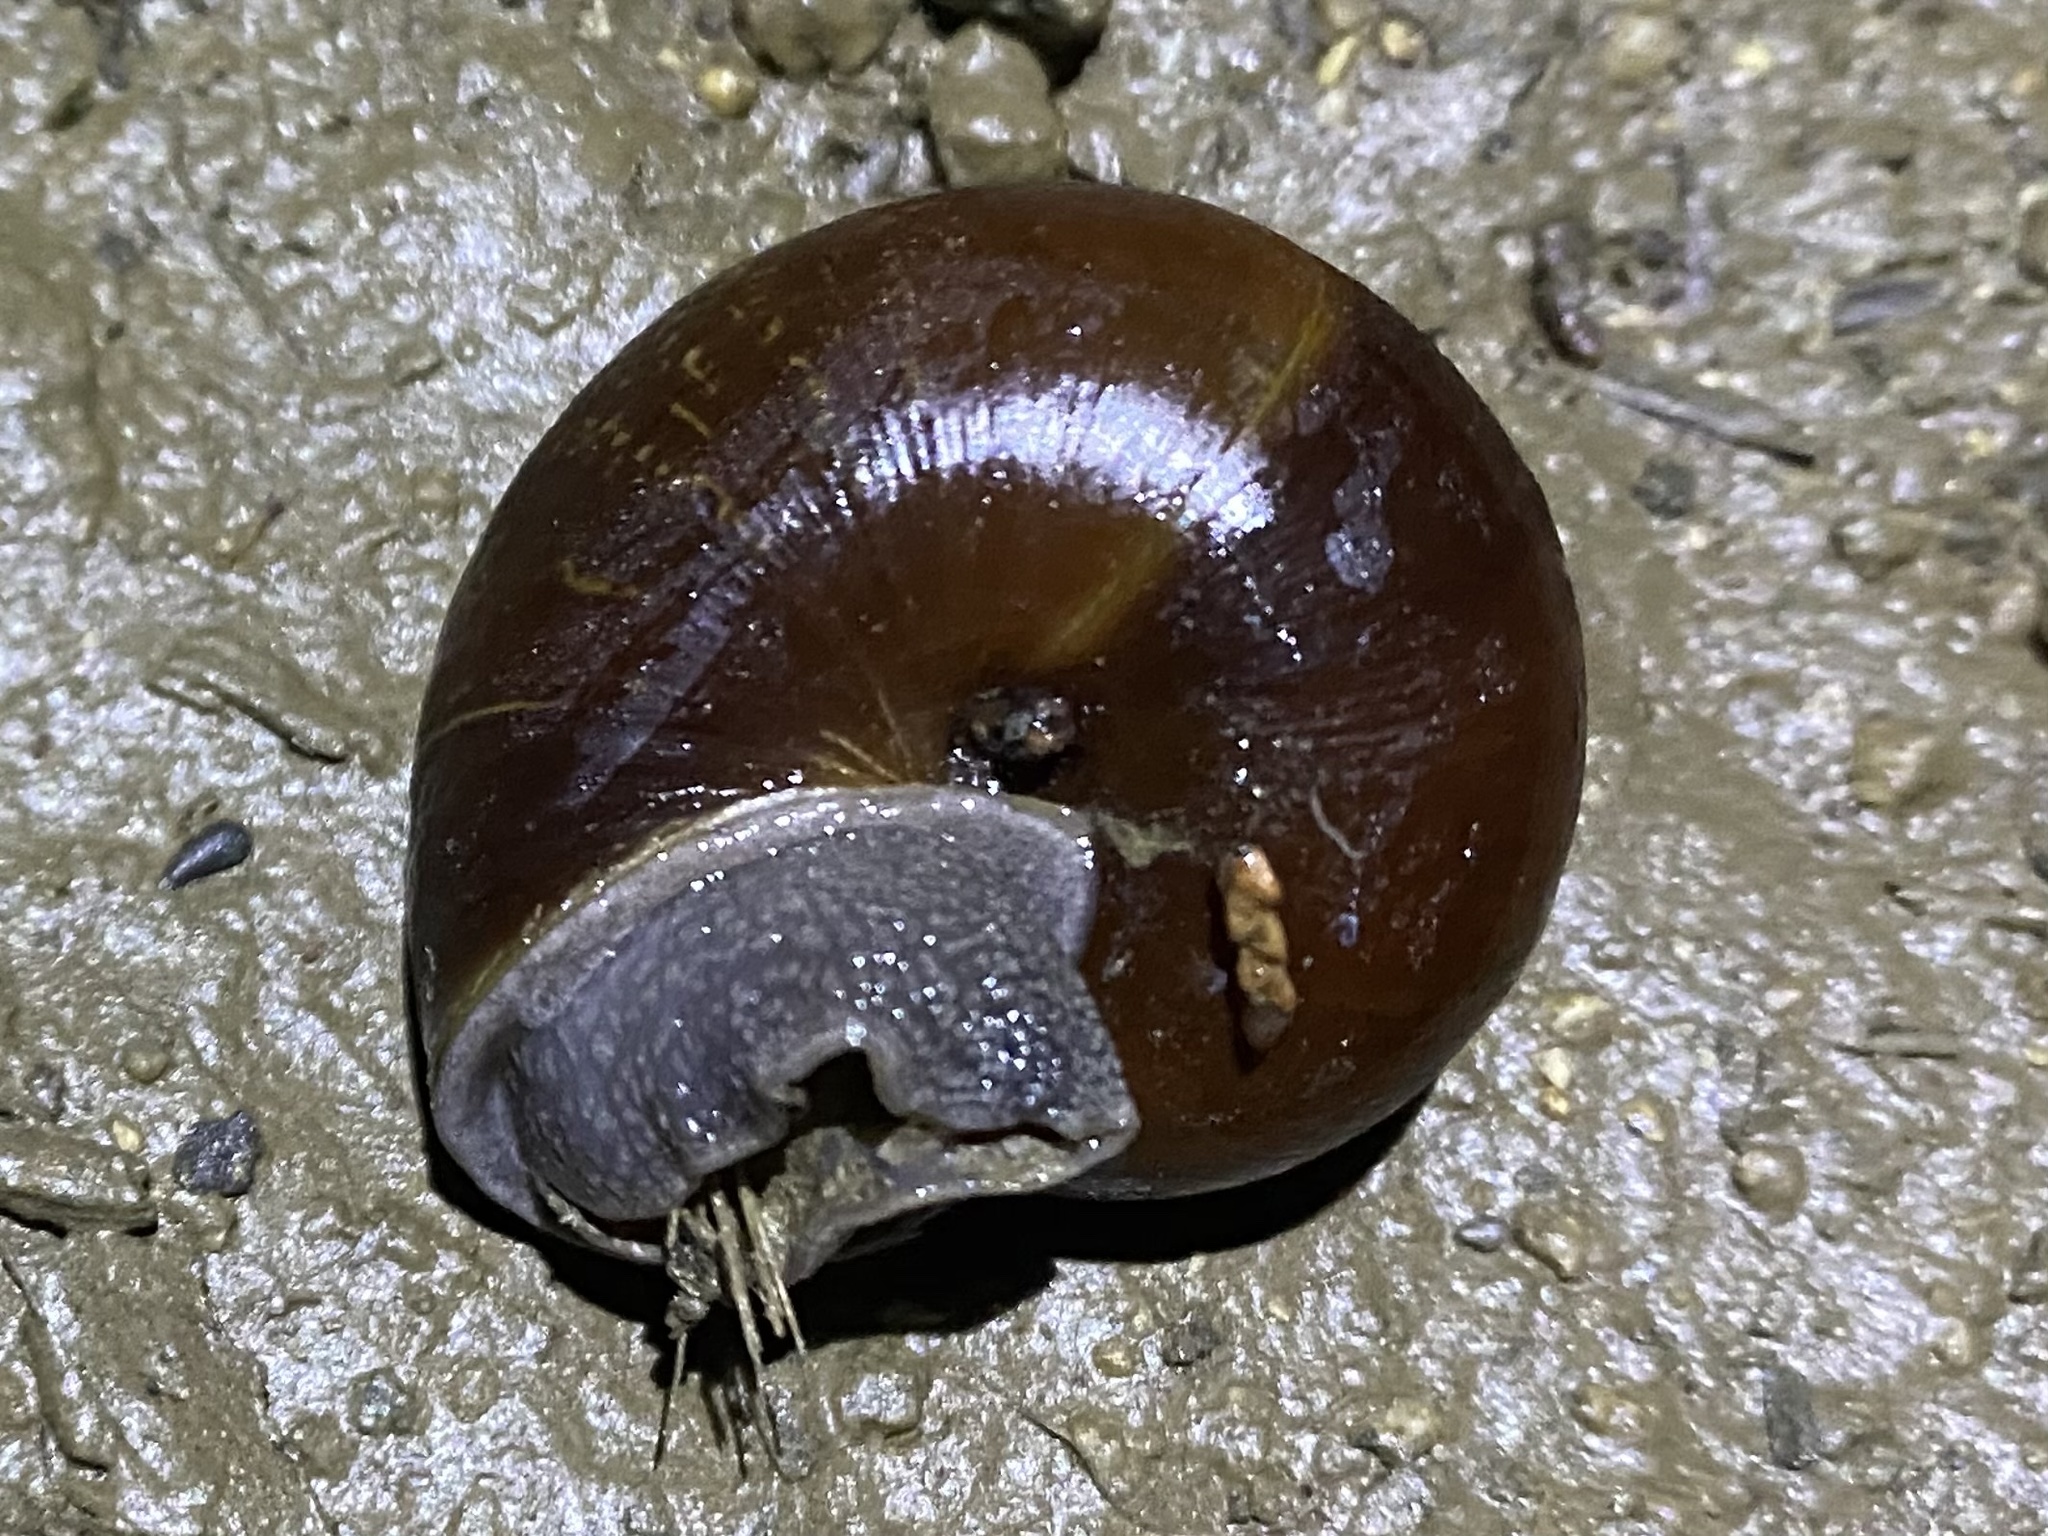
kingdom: Animalia
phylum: Mollusca
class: Gastropoda
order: Stylommatophora
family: Xanthonychidae
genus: Helminthoglypta
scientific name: Helminthoglypta arrosa
